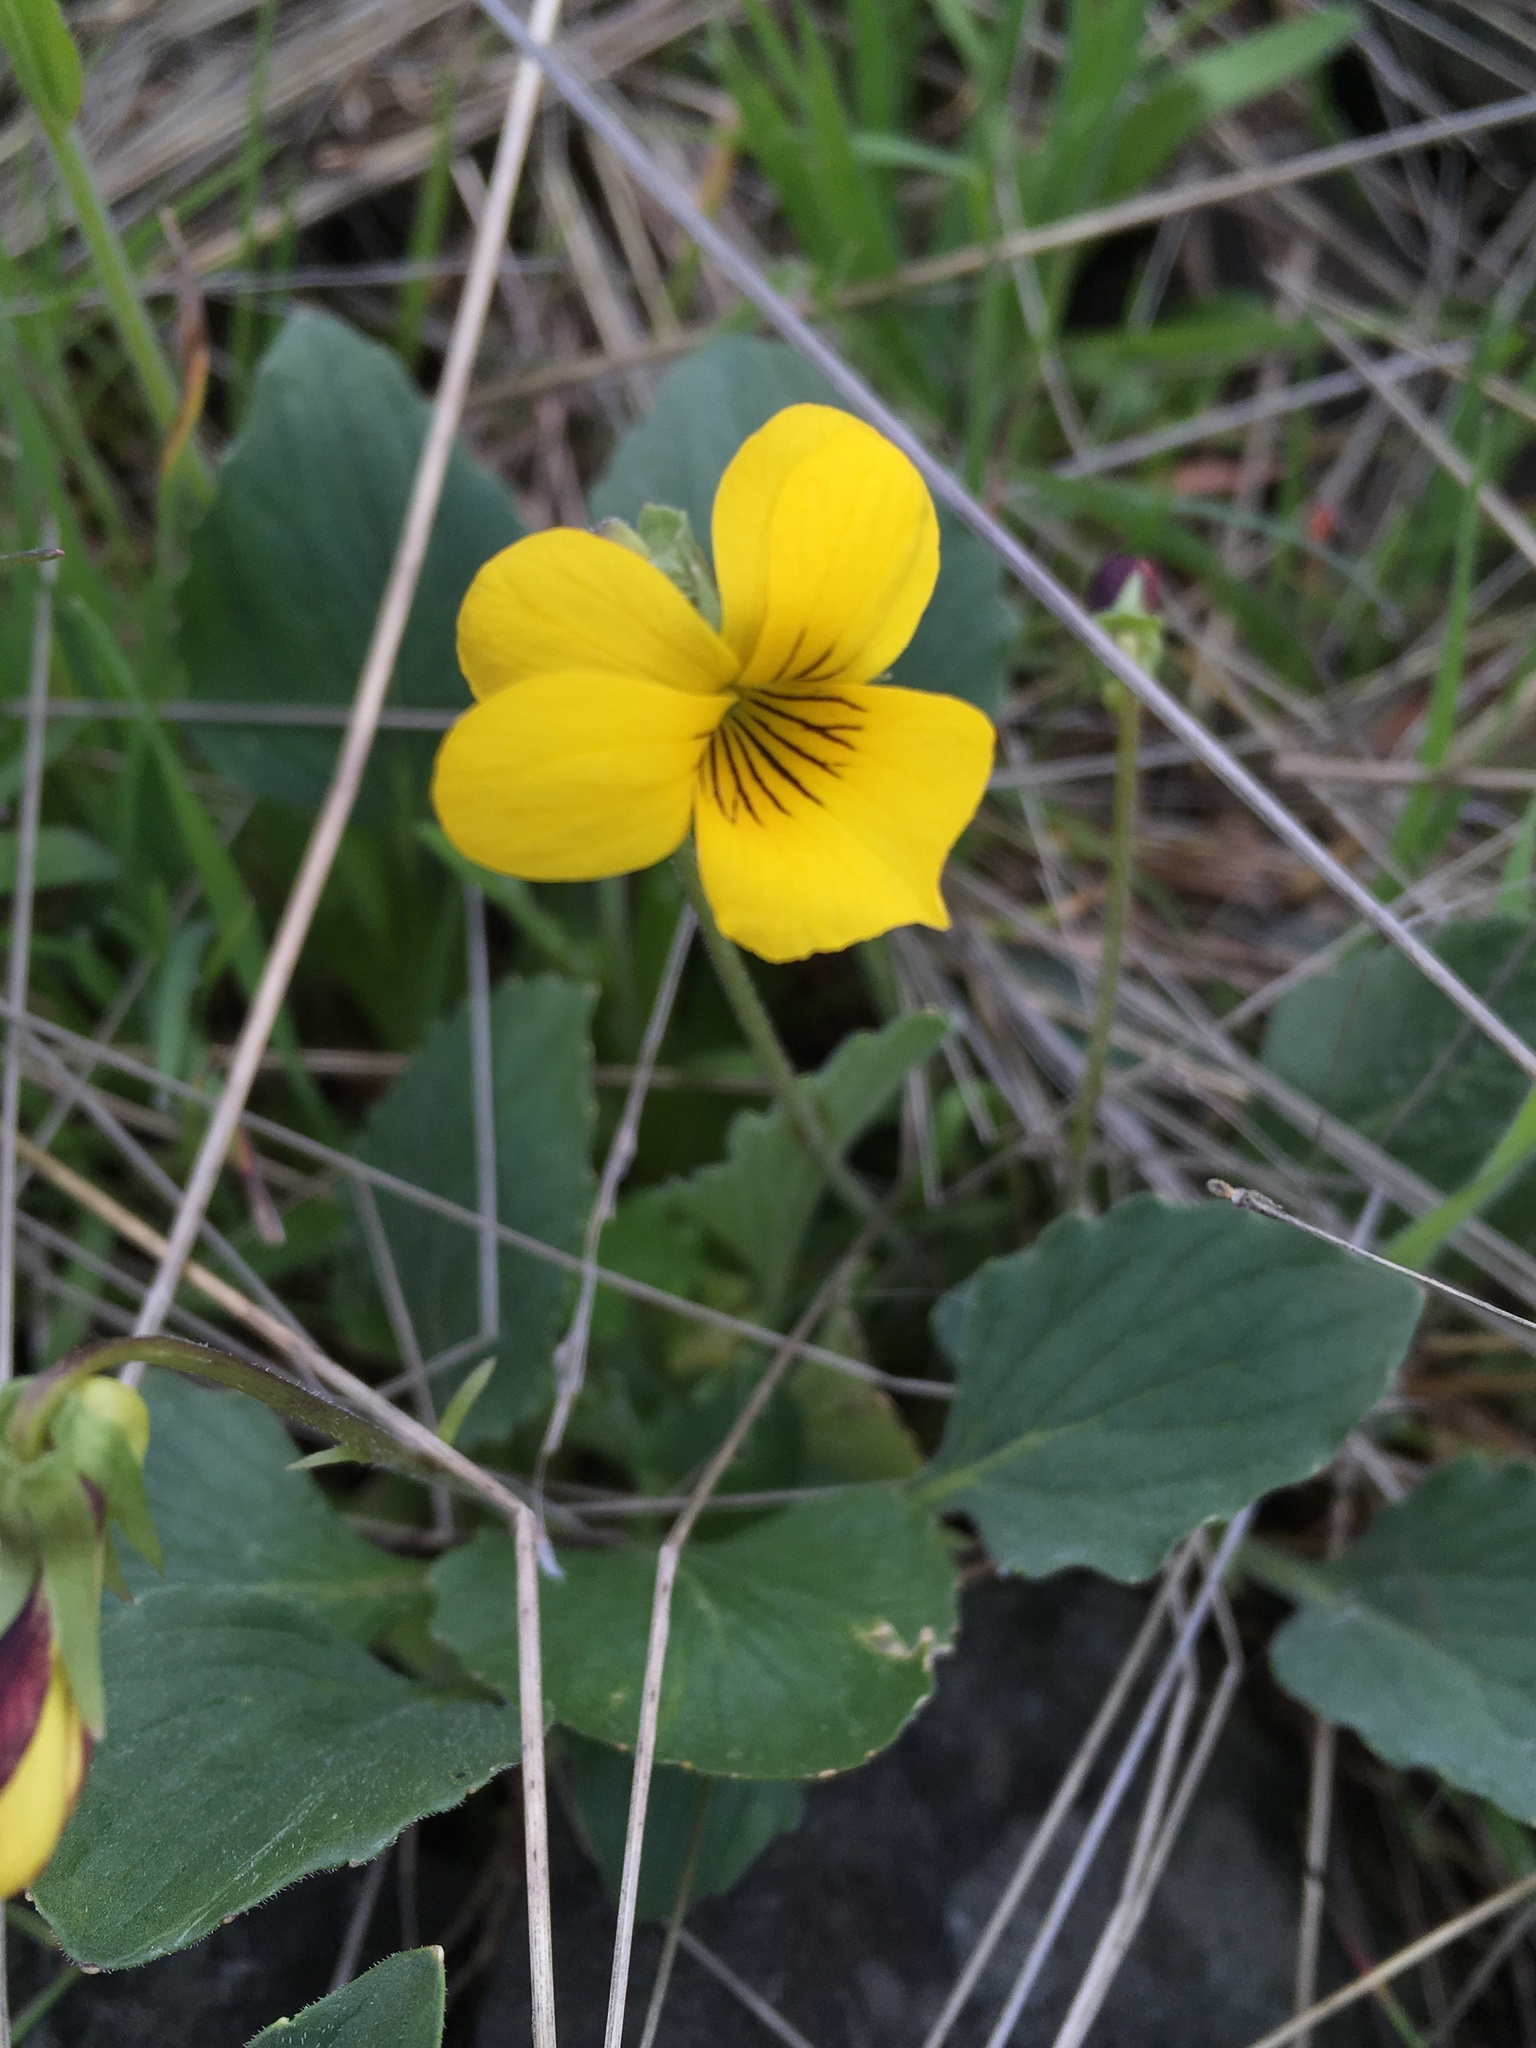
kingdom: Plantae
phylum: Tracheophyta
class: Magnoliopsida
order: Malpighiales
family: Violaceae
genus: Viola
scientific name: Viola quercetorum
